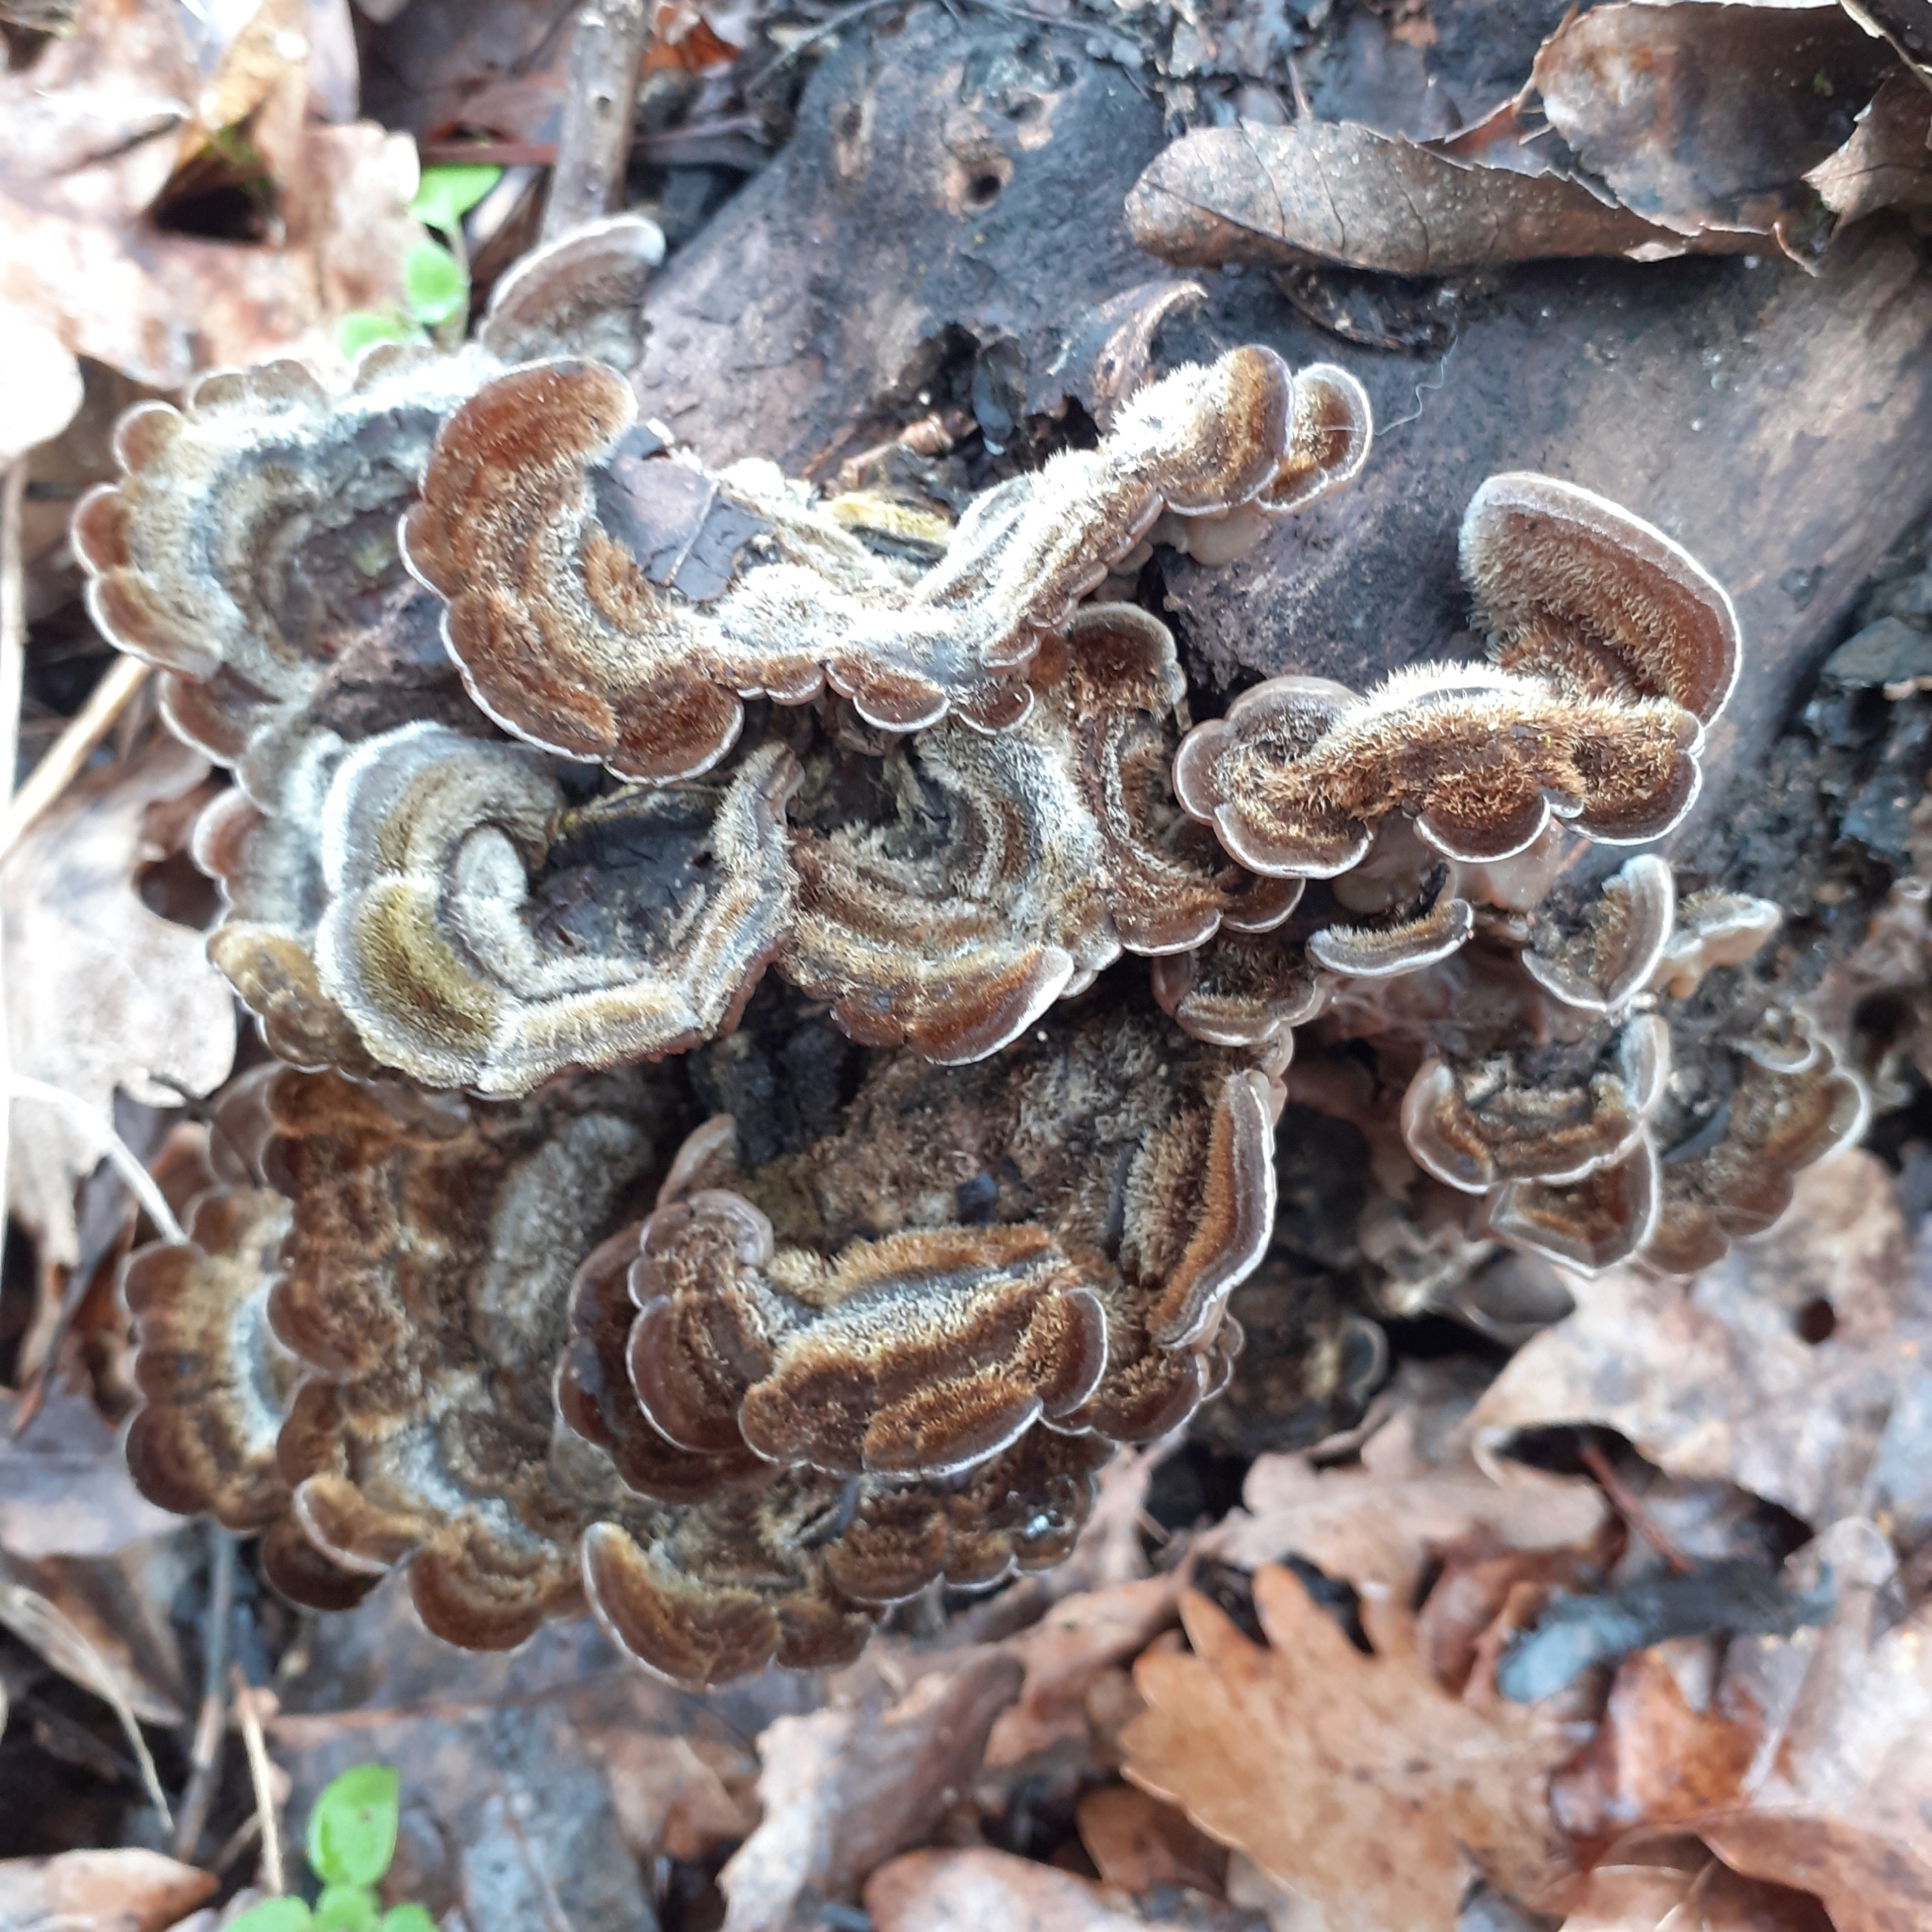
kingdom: Fungi
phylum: Basidiomycota
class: Agaricomycetes
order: Auriculariales
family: Auriculariaceae
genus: Auricularia
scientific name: Auricularia mesenterica
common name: Tripe fungus
